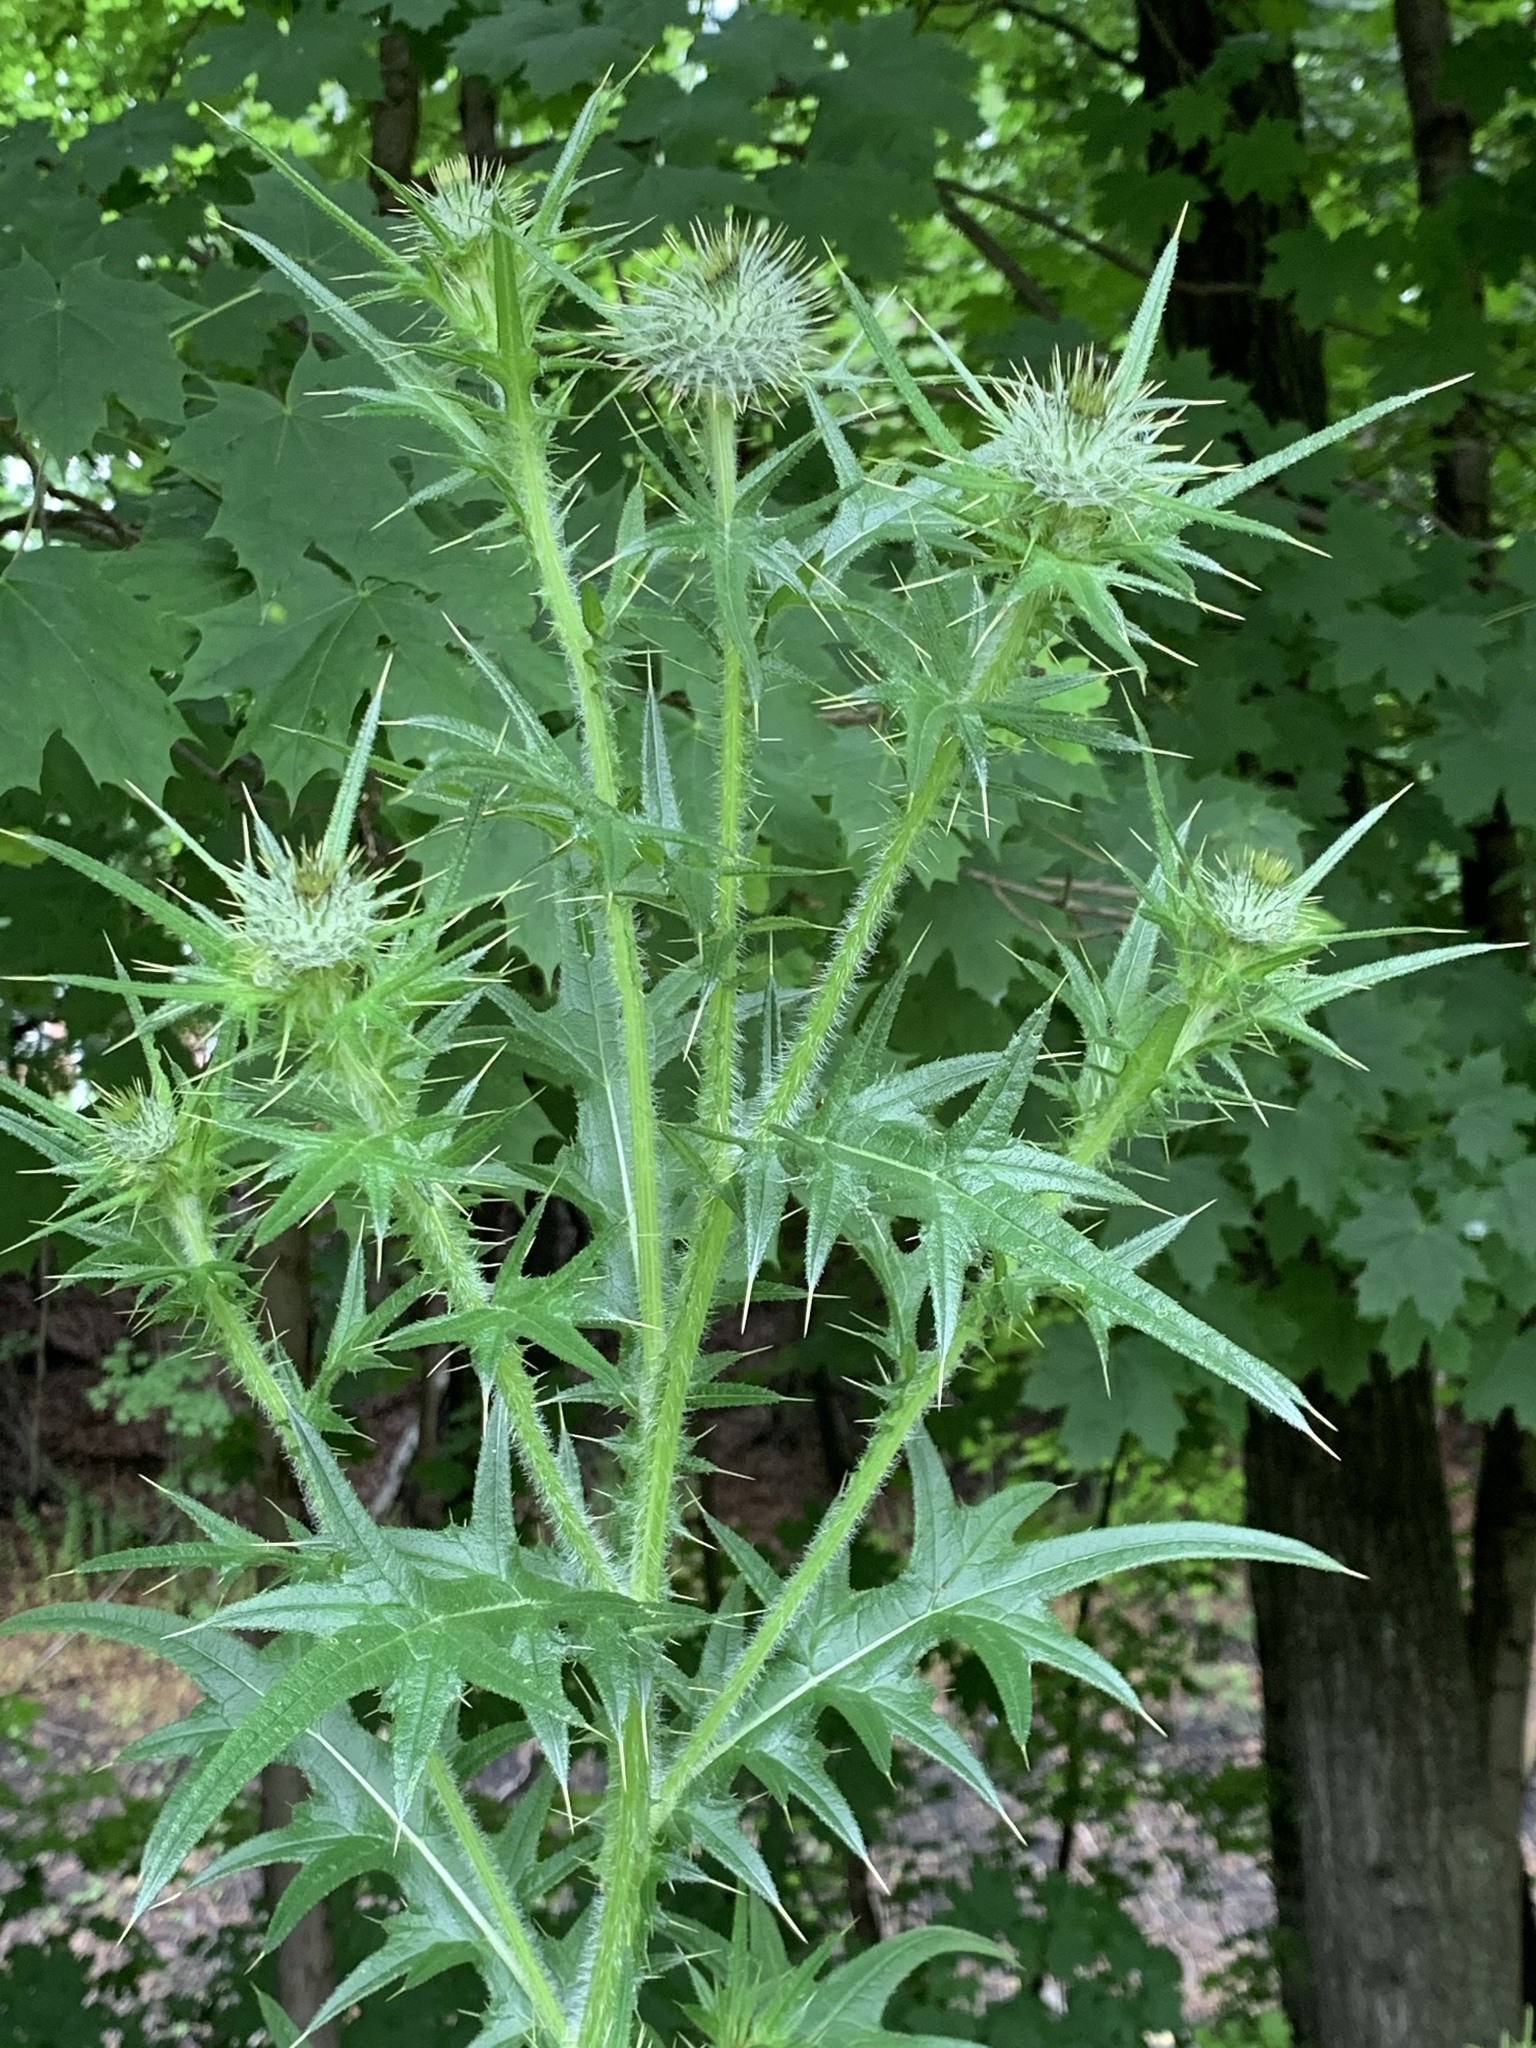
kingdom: Plantae
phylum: Tracheophyta
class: Magnoliopsida
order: Asterales
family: Asteraceae
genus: Cirsium
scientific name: Cirsium vulgare
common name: Bull thistle
